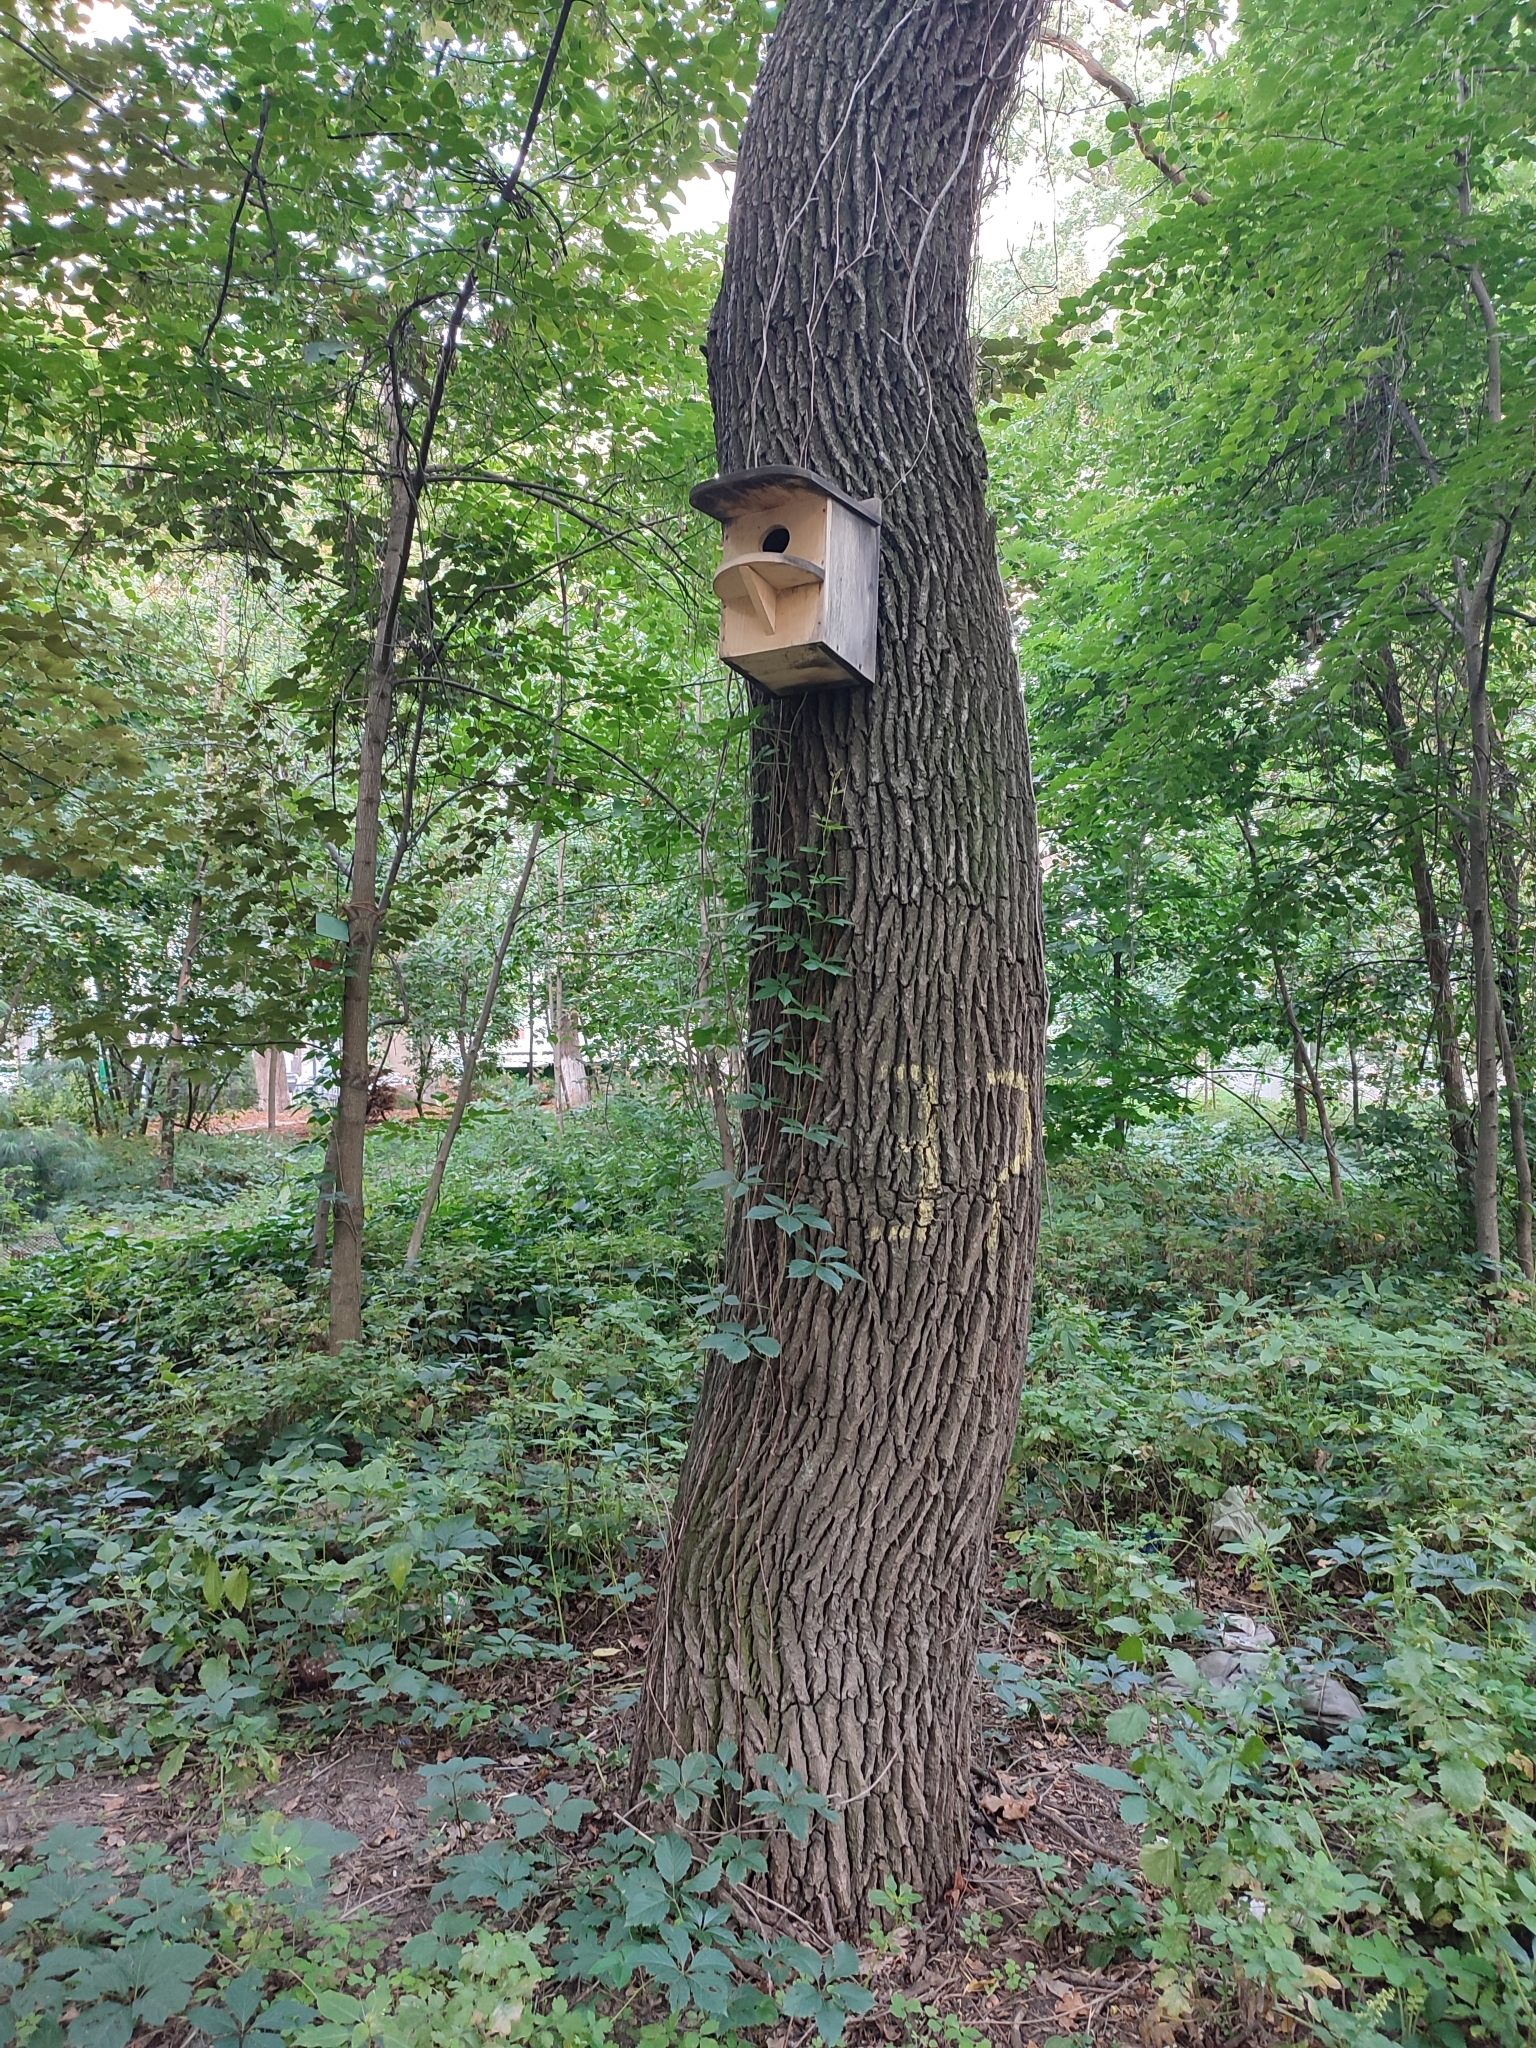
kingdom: Plantae
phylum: Tracheophyta
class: Magnoliopsida
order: Fagales
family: Fagaceae
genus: Quercus
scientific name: Quercus robur
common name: Pedunculate oak
